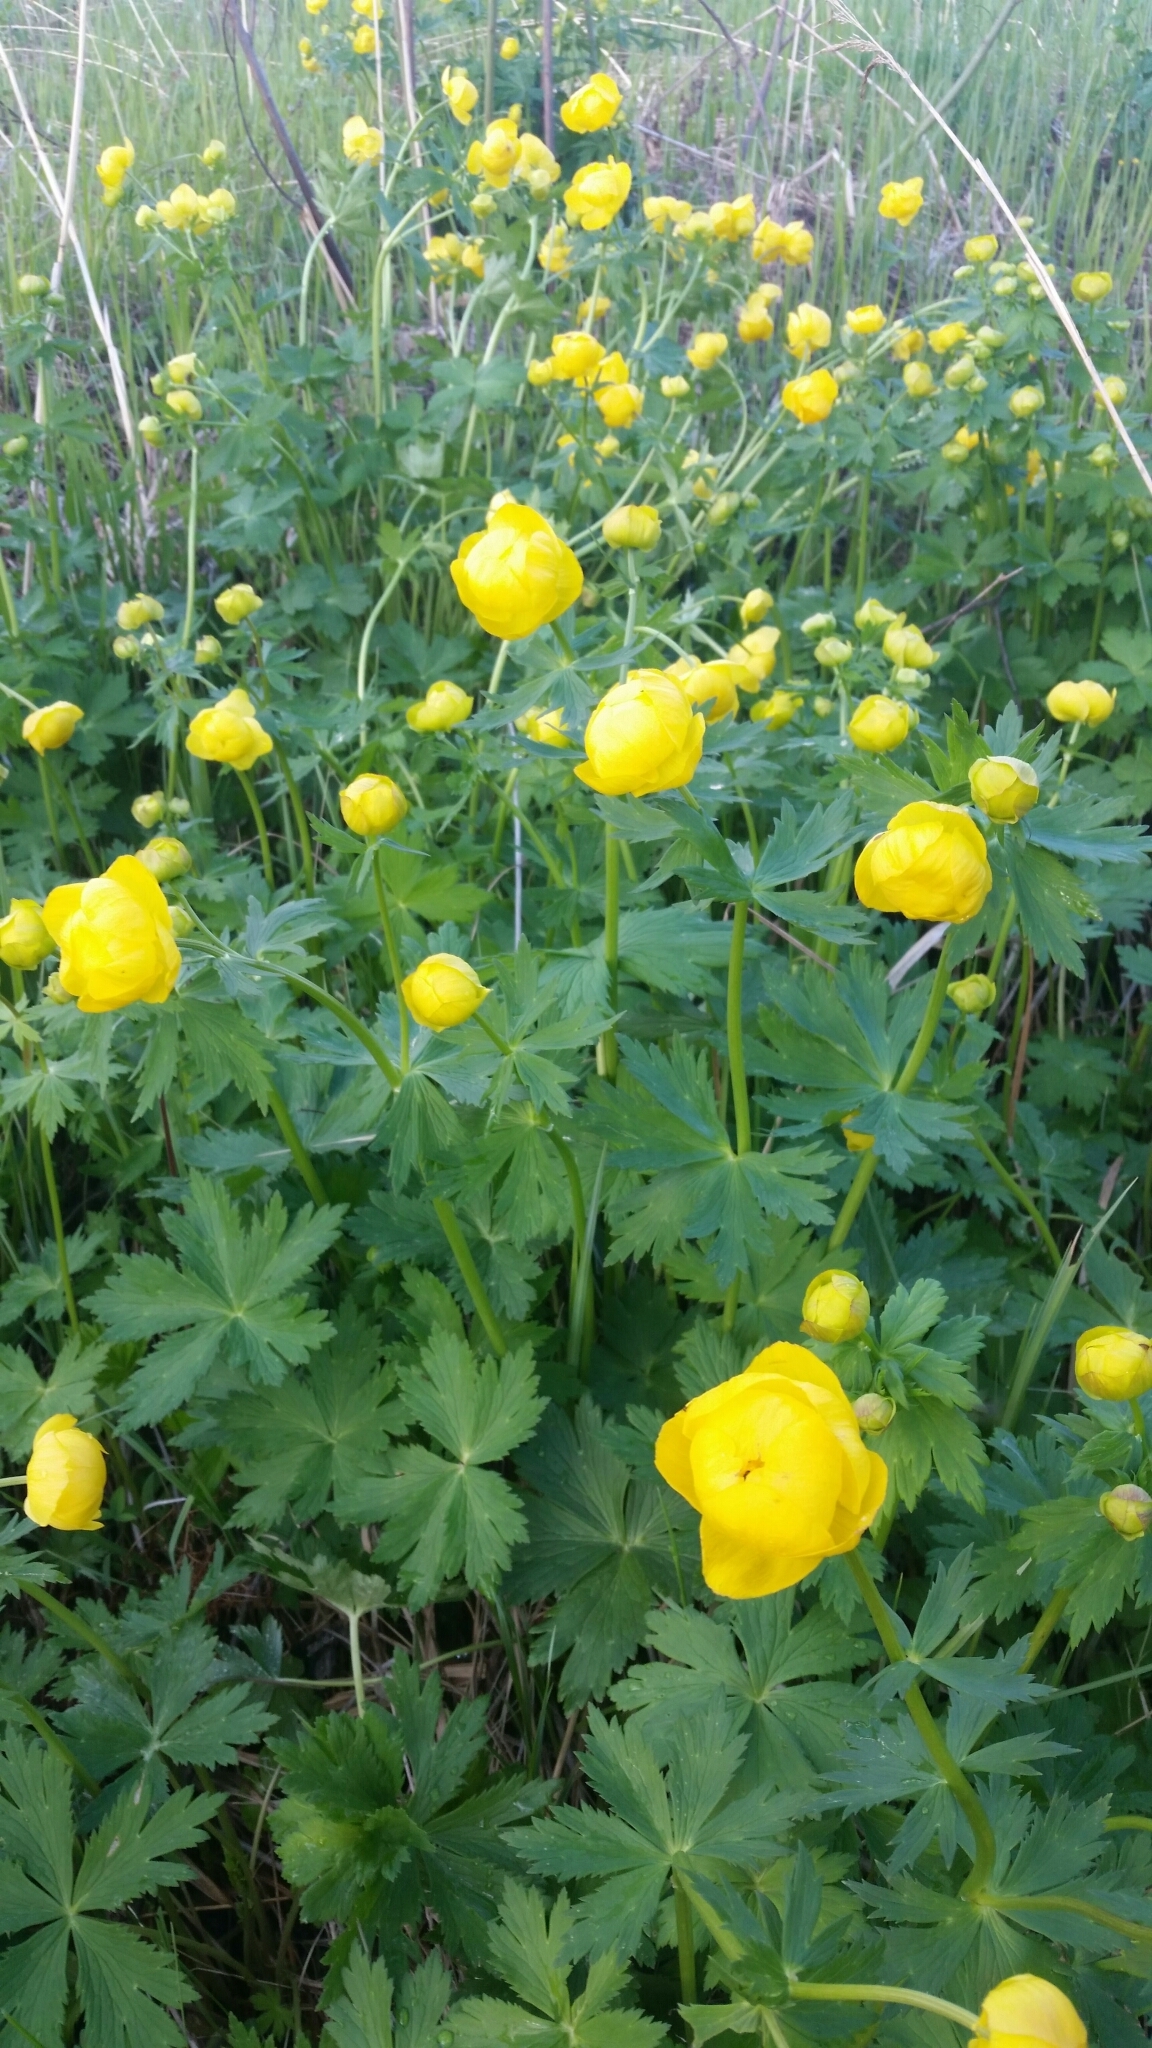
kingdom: Plantae
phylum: Tracheophyta
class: Magnoliopsida
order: Ranunculales
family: Ranunculaceae
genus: Trollius
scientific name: Trollius europaeus
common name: European globeflower
